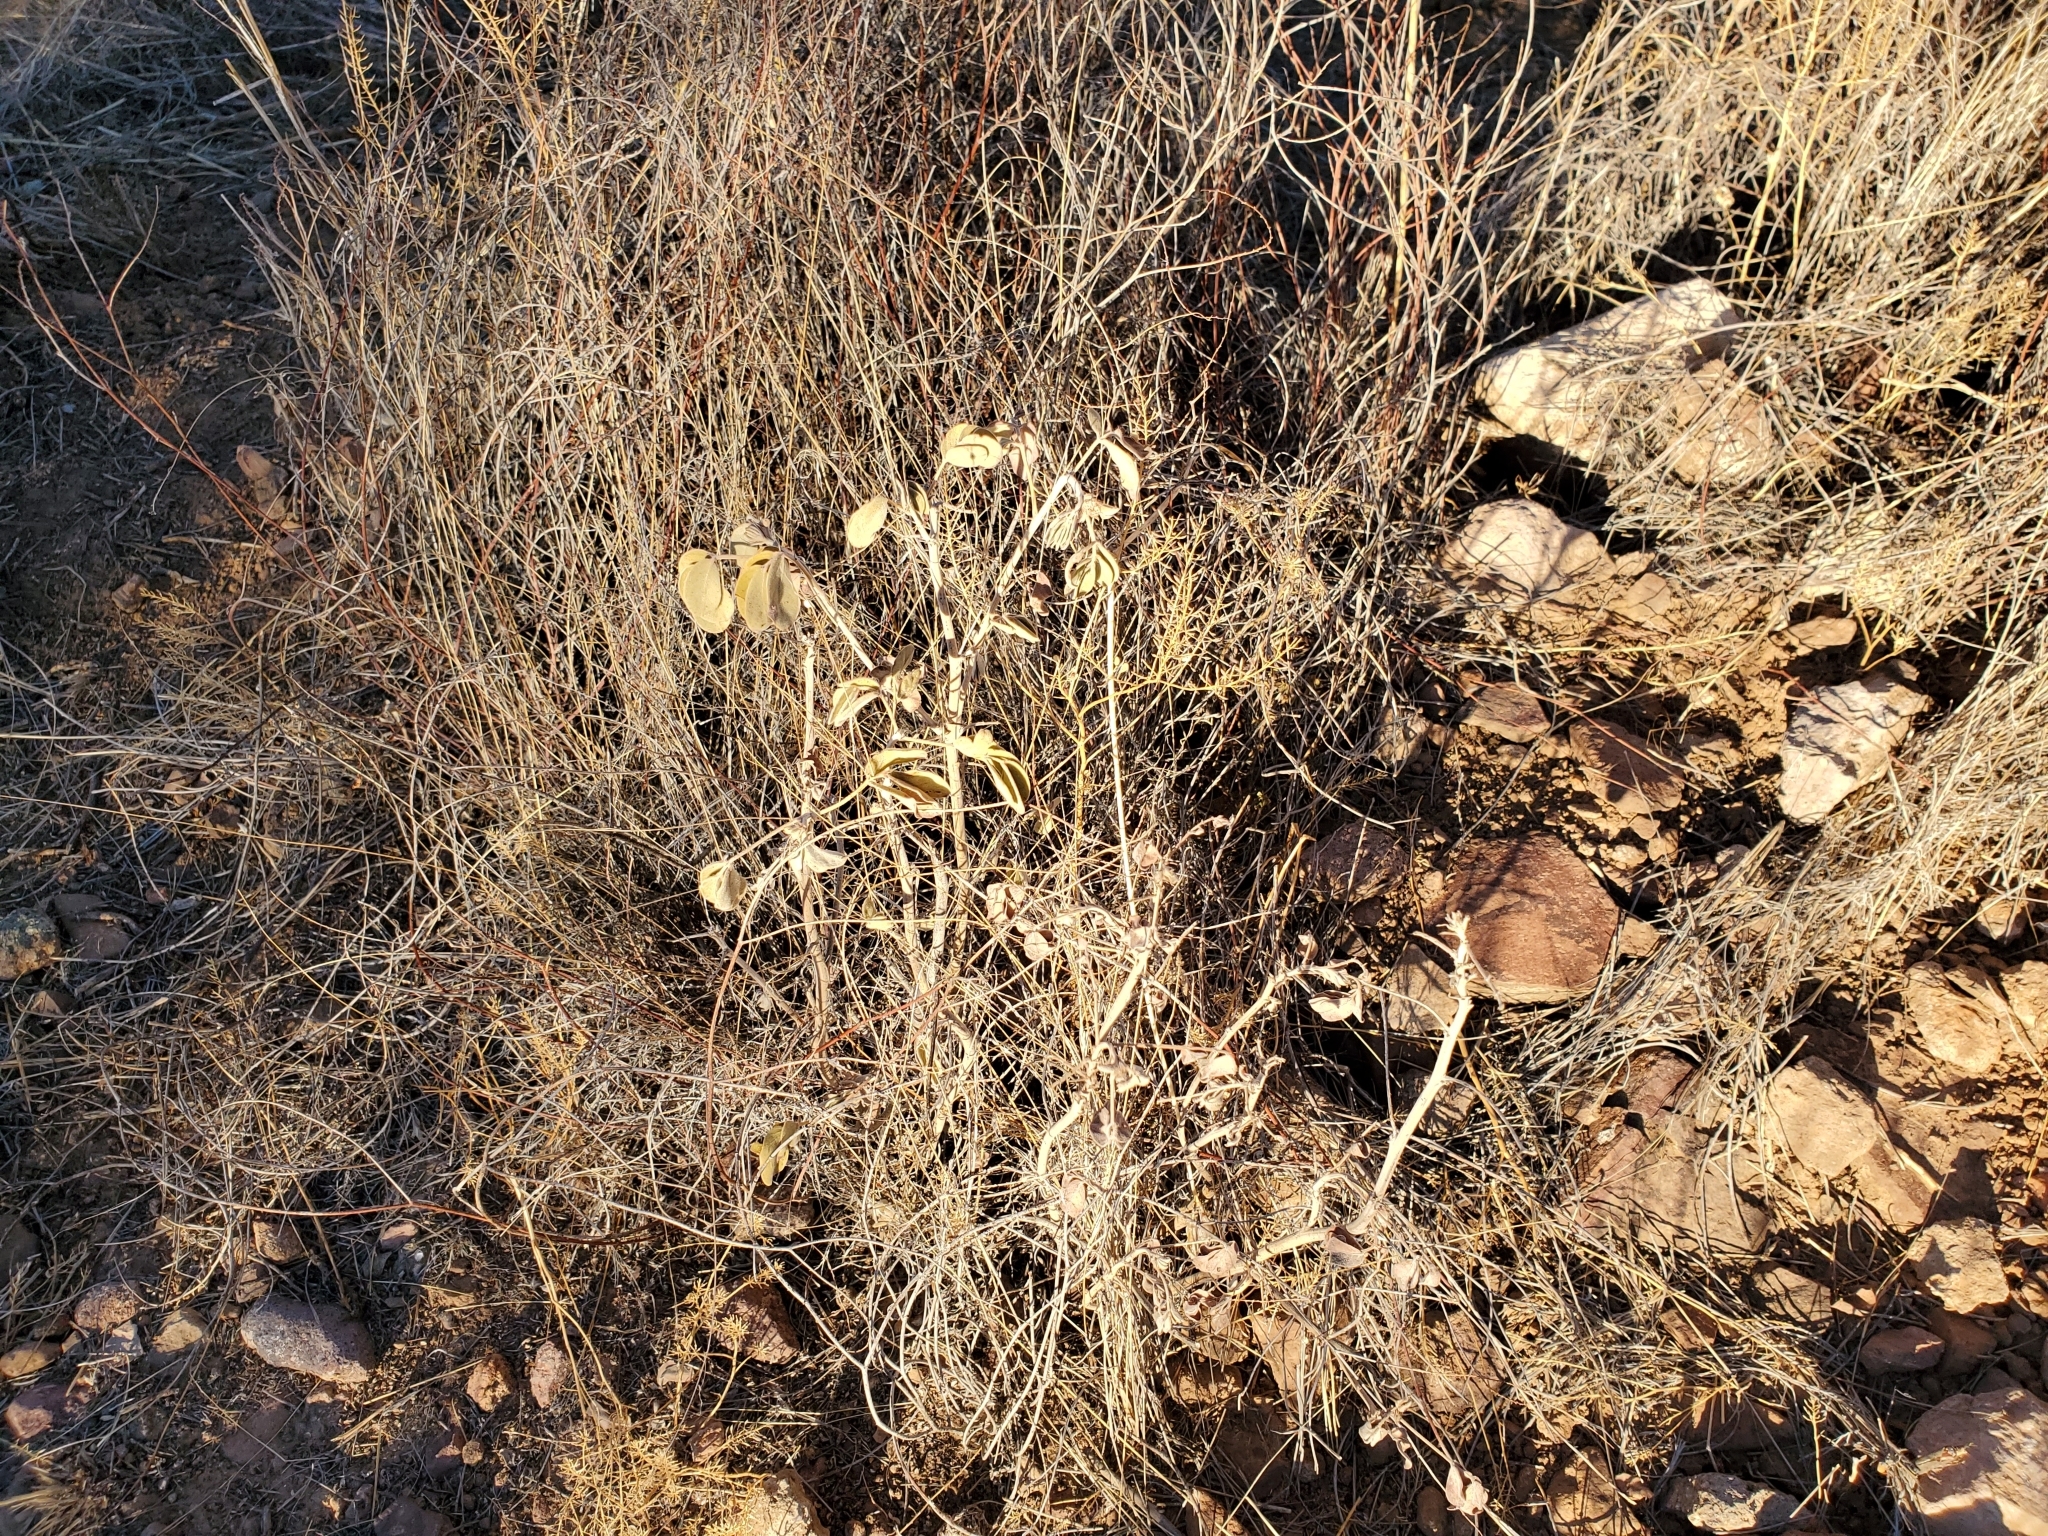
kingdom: Plantae
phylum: Tracheophyta
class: Magnoliopsida
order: Fabales
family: Fabaceae
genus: Senna
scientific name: Senna covesii
